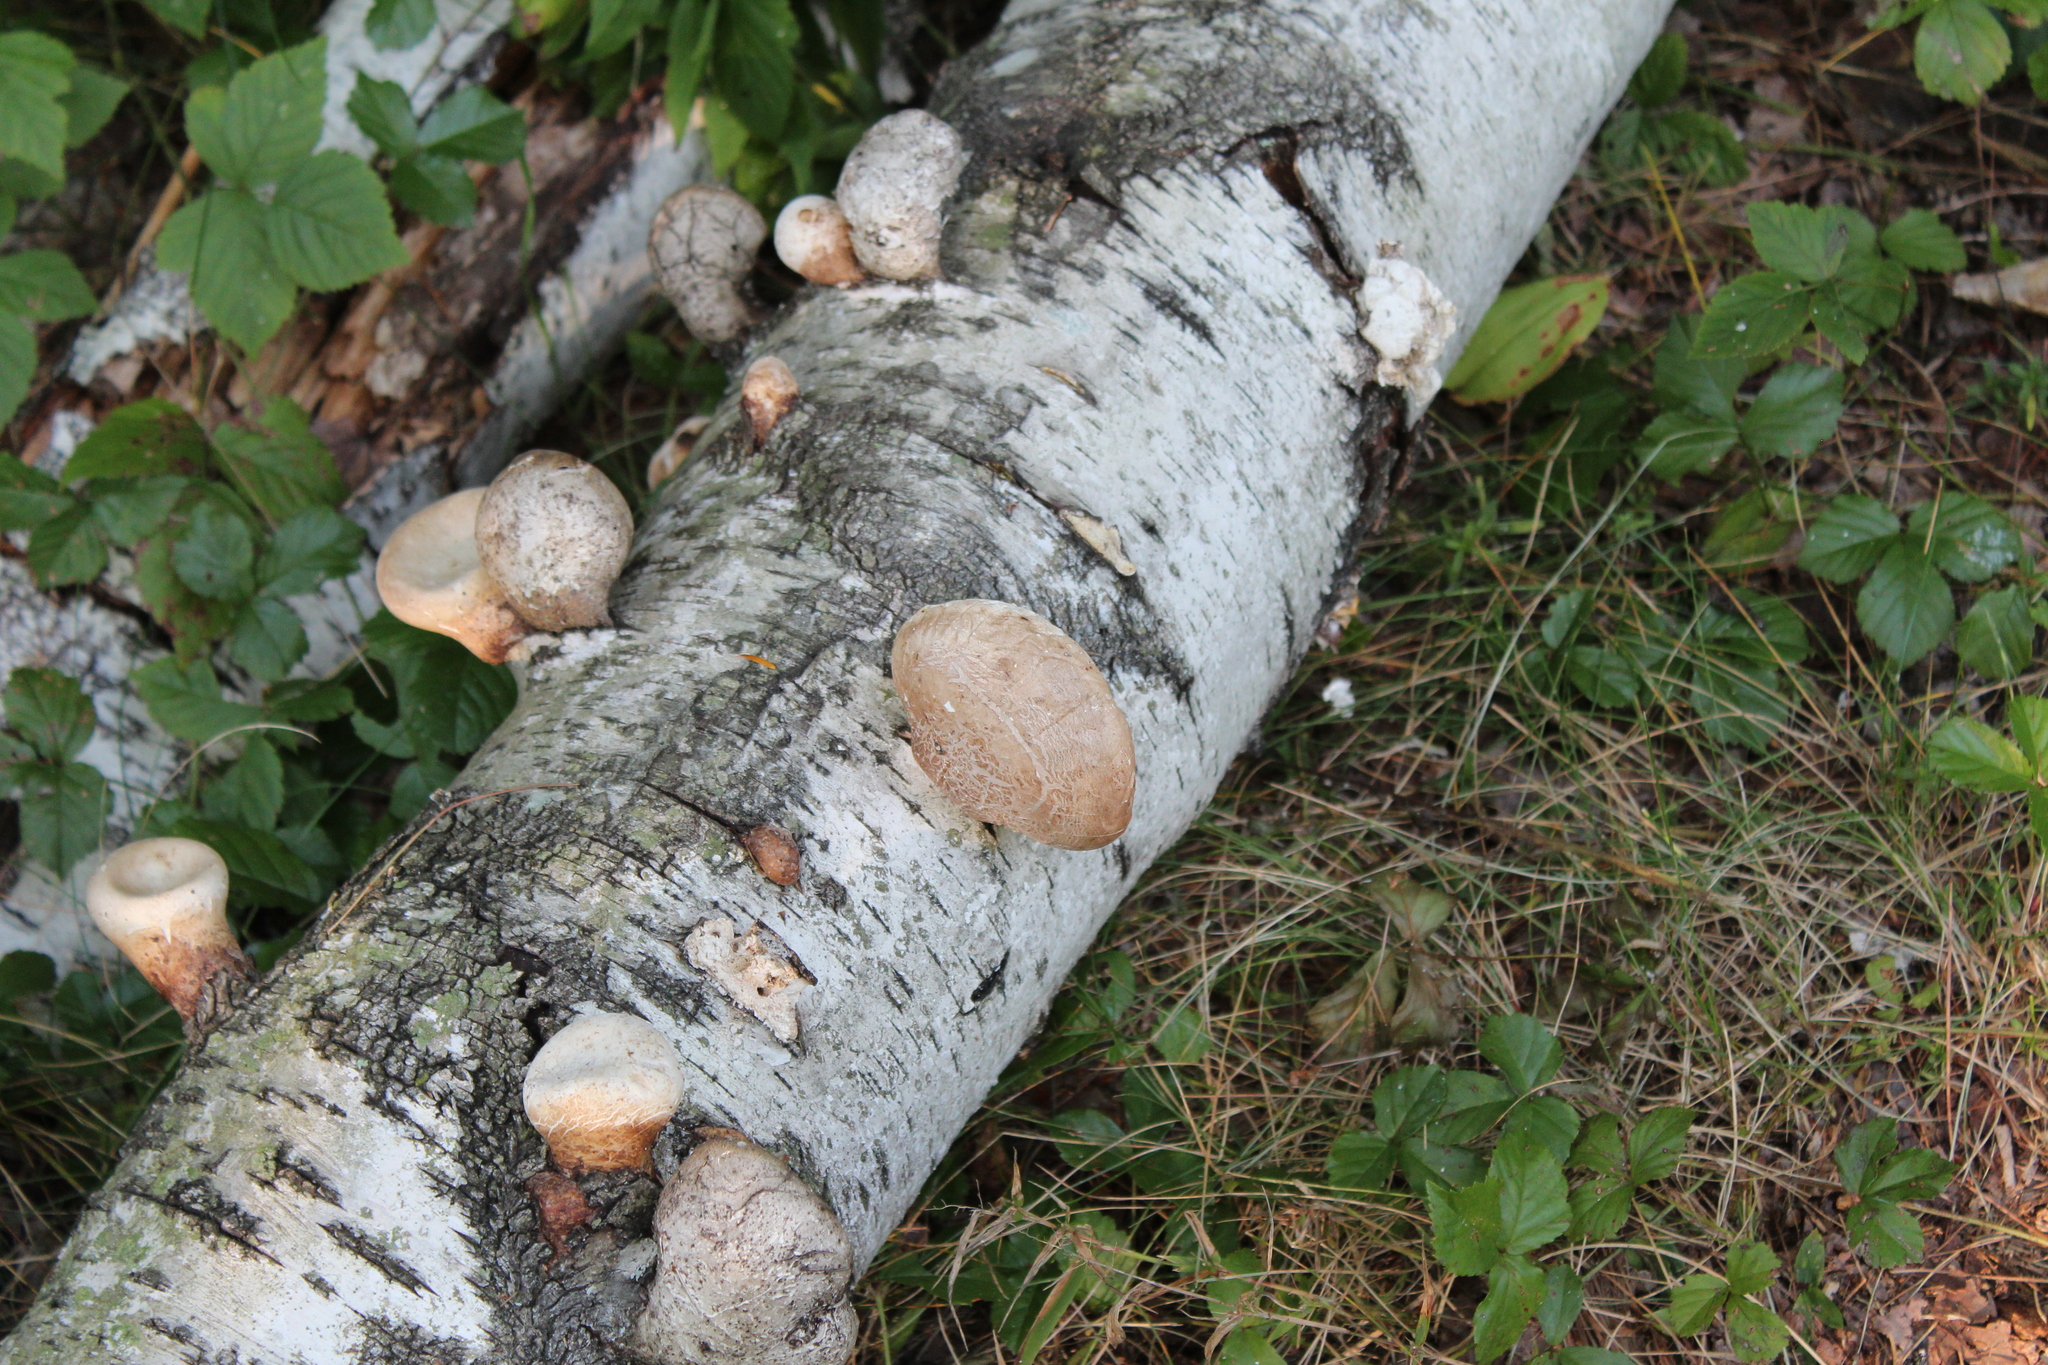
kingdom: Fungi
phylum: Basidiomycota
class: Agaricomycetes
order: Polyporales
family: Fomitopsidaceae
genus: Fomitopsis
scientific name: Fomitopsis betulina
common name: Birch polypore
